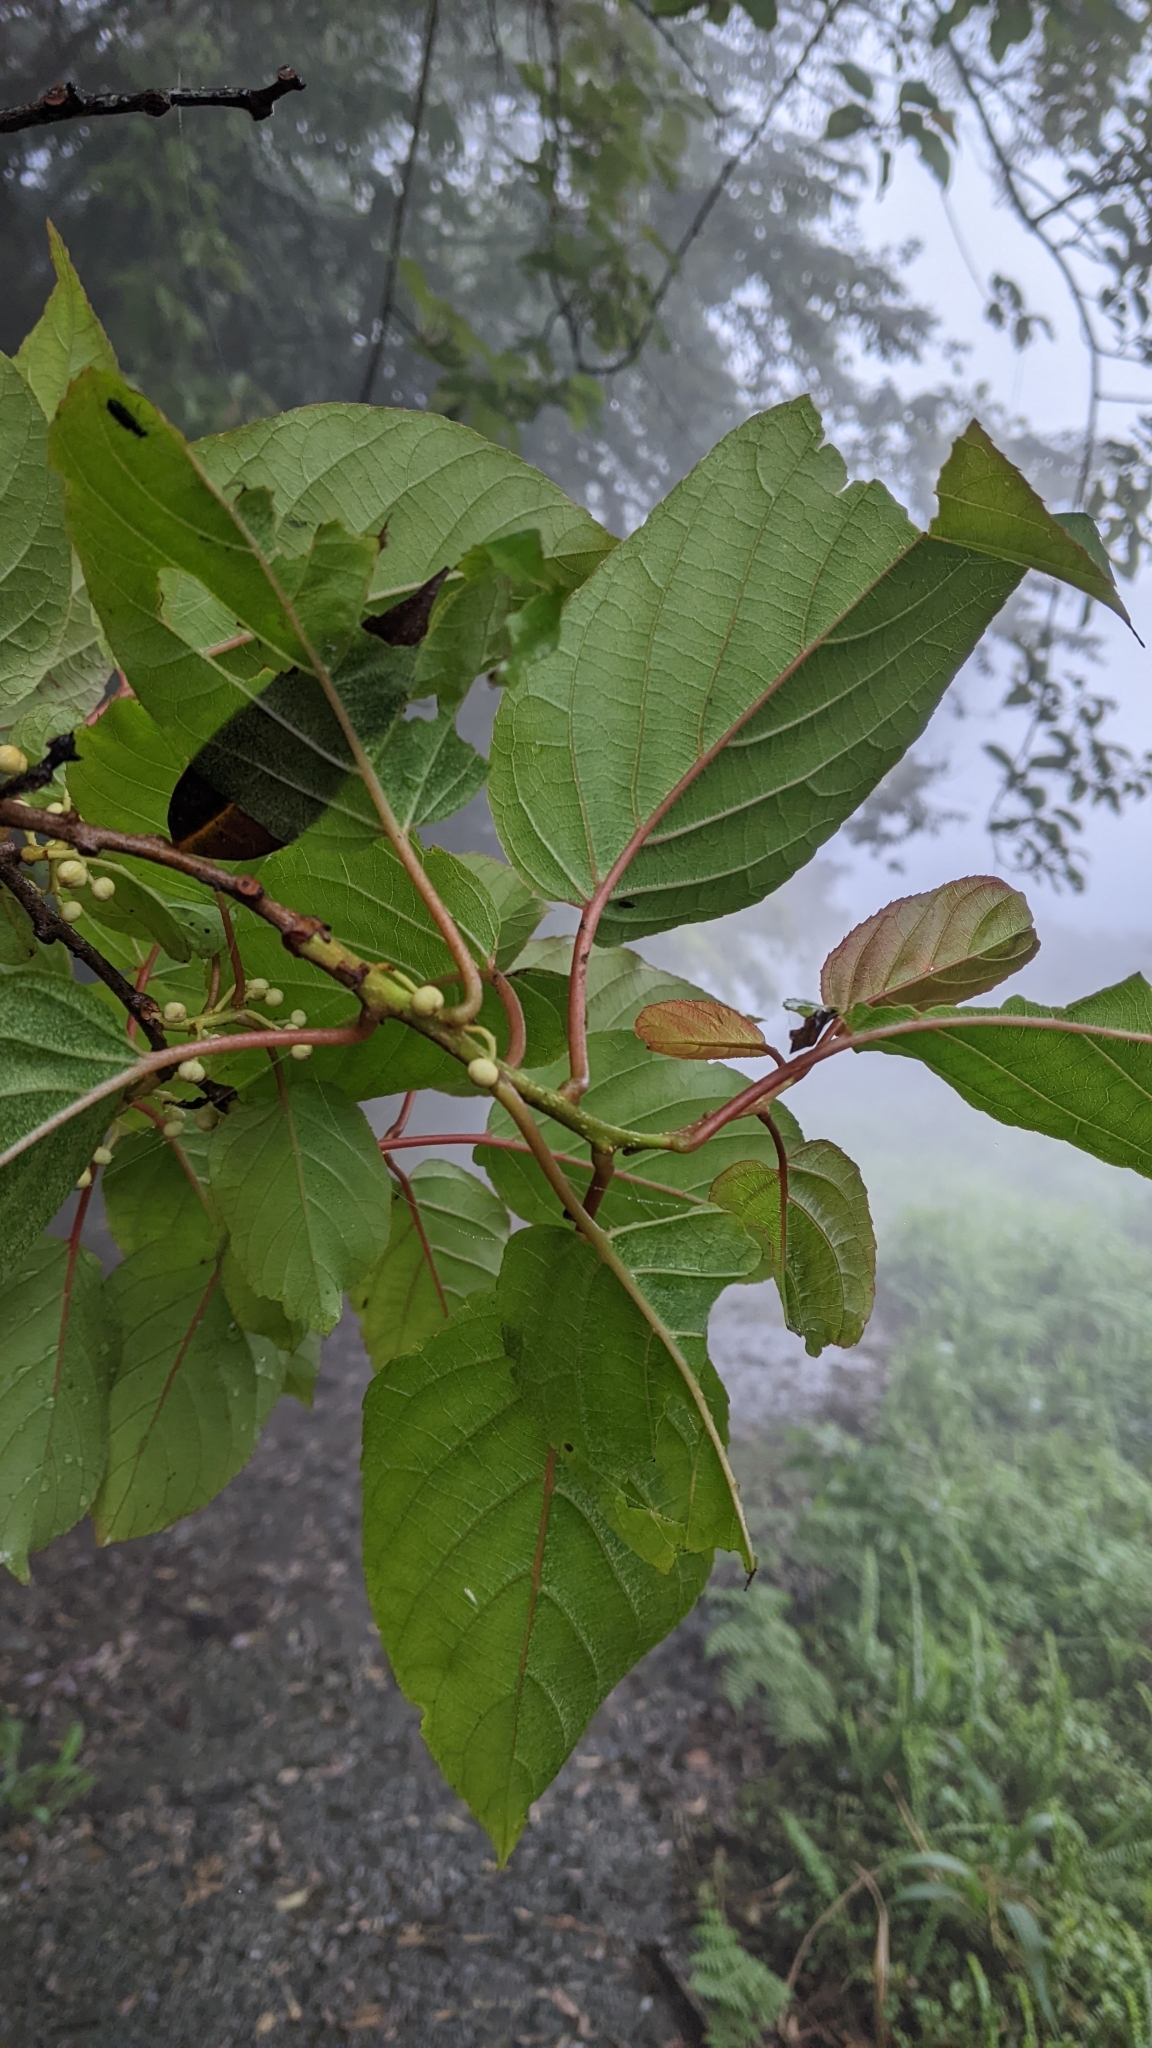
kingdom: Plantae
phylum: Tracheophyta
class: Magnoliopsida
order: Ericales
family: Actinidiaceae
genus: Actinidia
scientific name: Actinidia rufa
